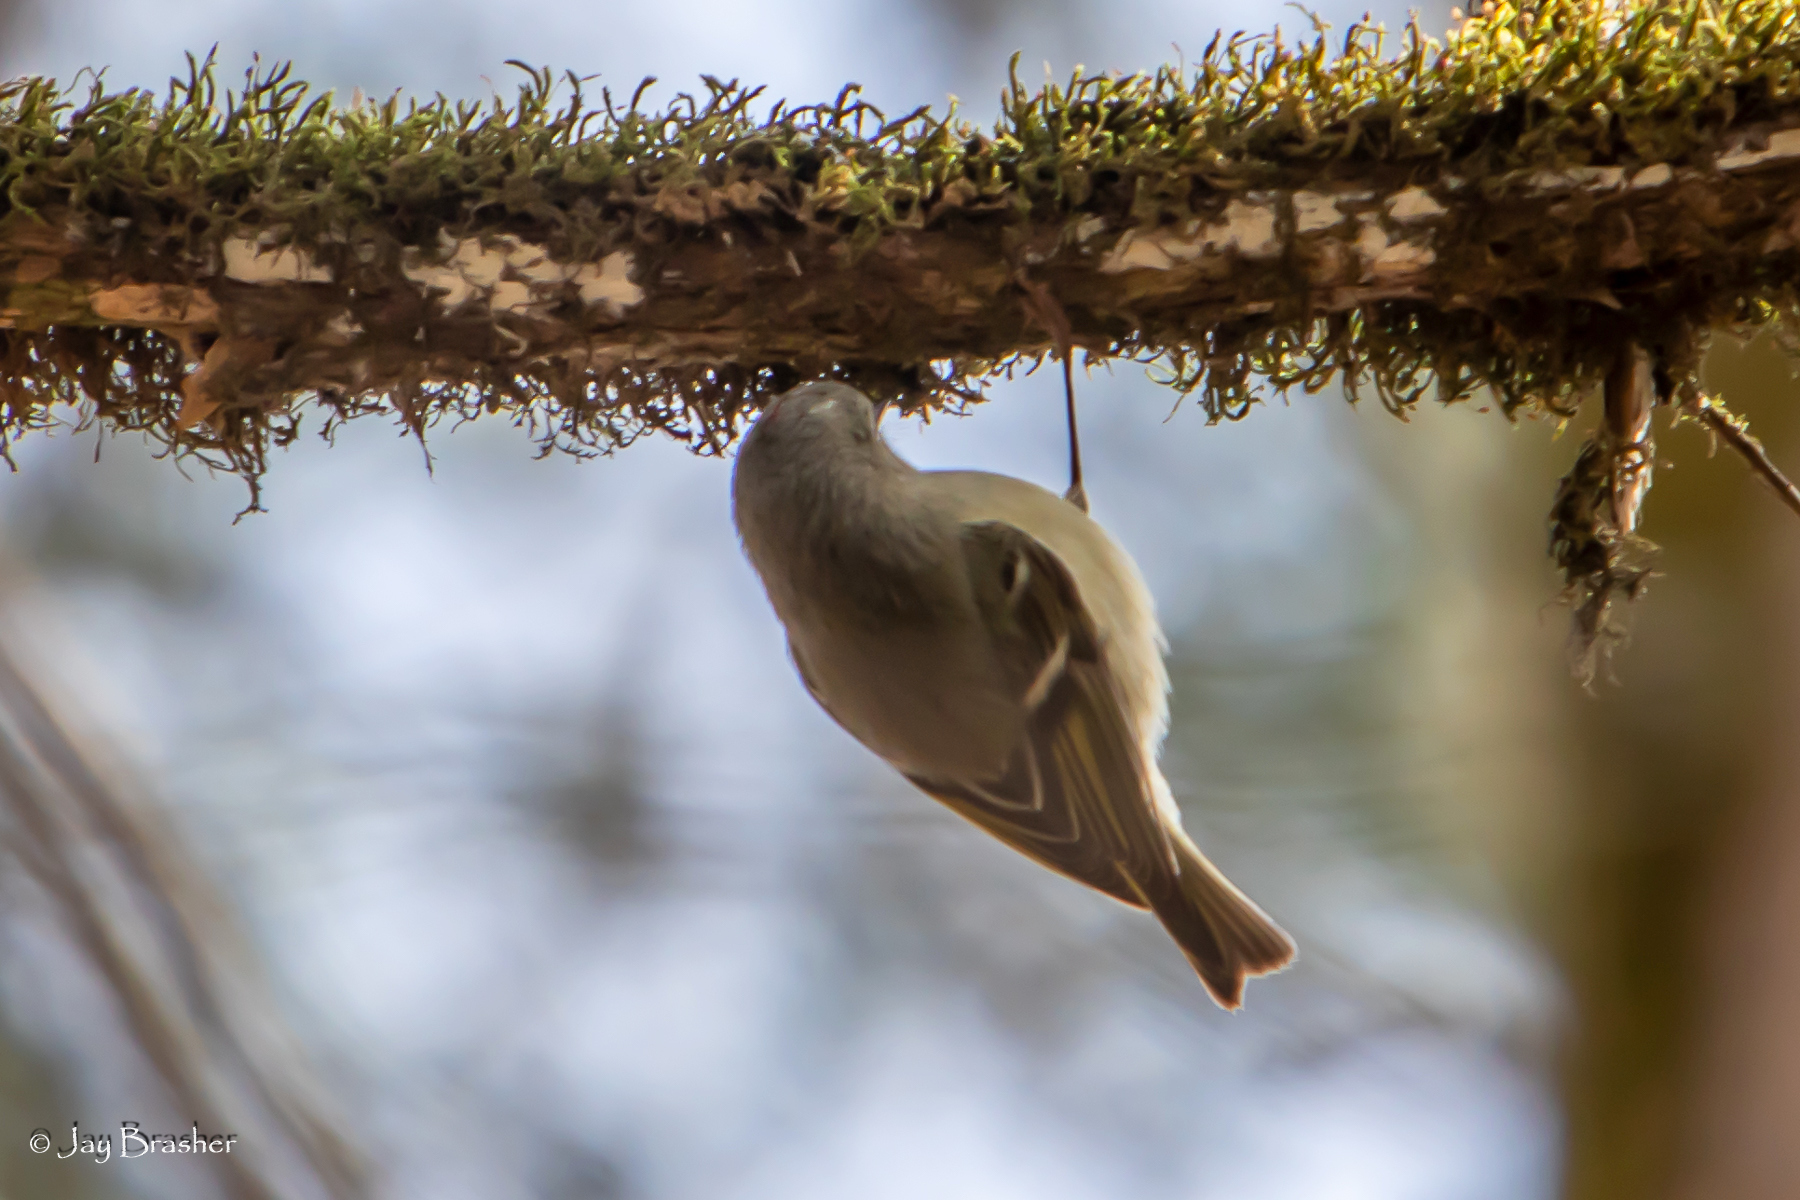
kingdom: Animalia
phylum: Chordata
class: Aves
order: Passeriformes
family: Regulidae
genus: Regulus
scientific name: Regulus calendula
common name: Ruby-crowned kinglet
